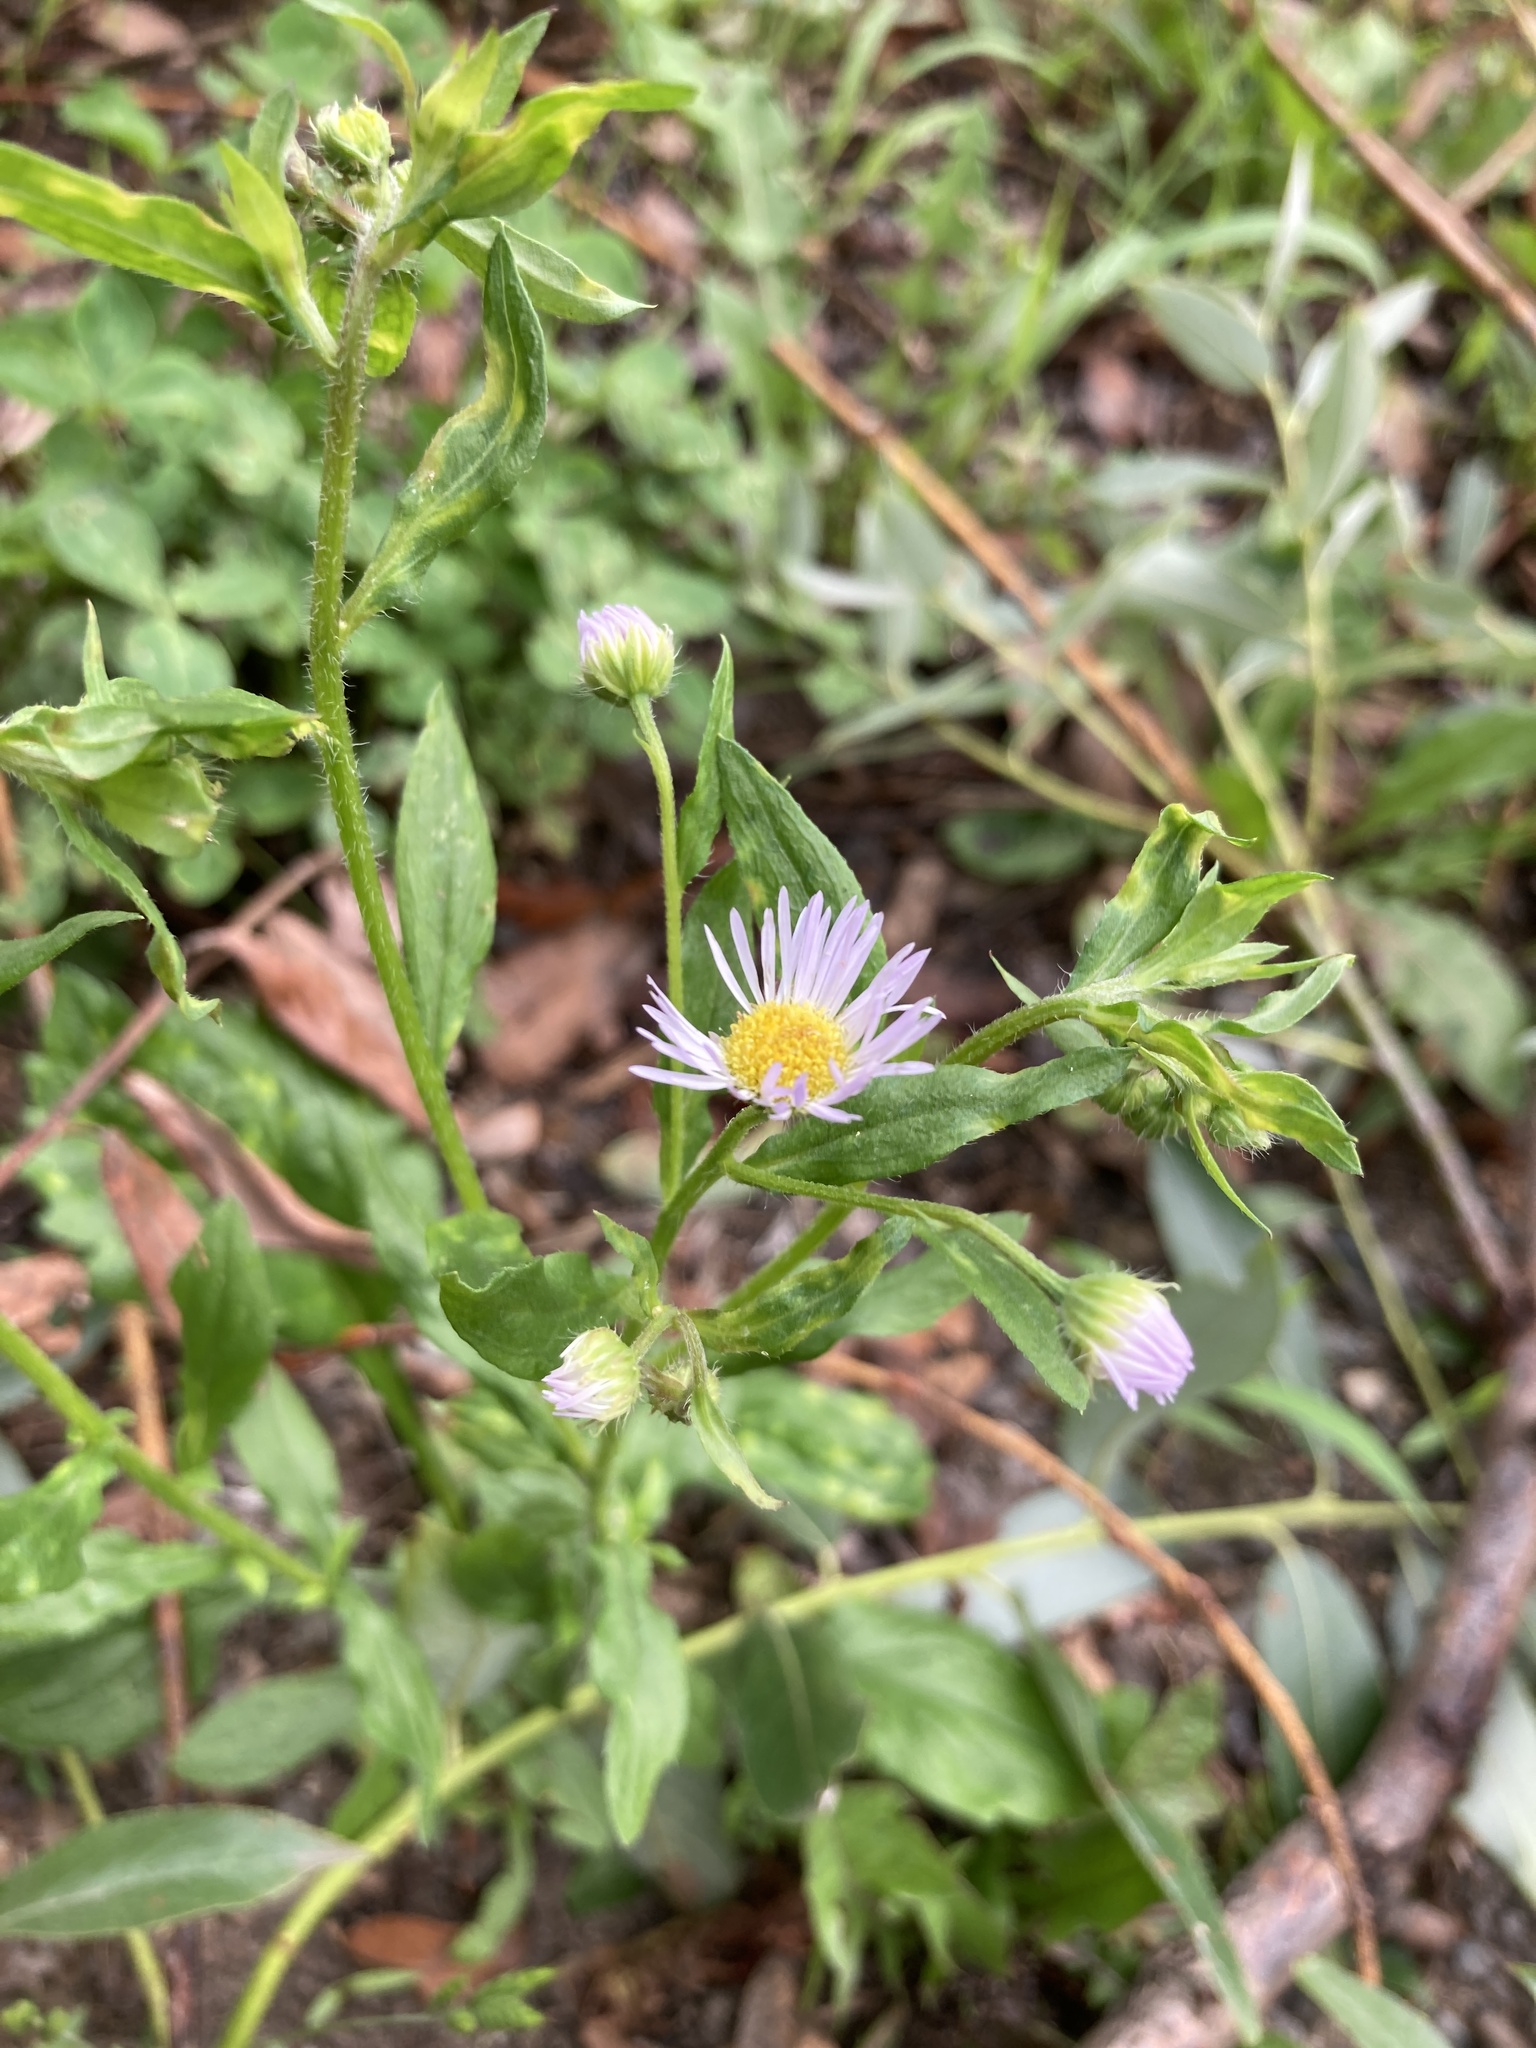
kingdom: Plantae
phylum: Tracheophyta
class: Magnoliopsida
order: Asterales
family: Asteraceae
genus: Erigeron
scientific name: Erigeron annuus
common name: Tall fleabane
